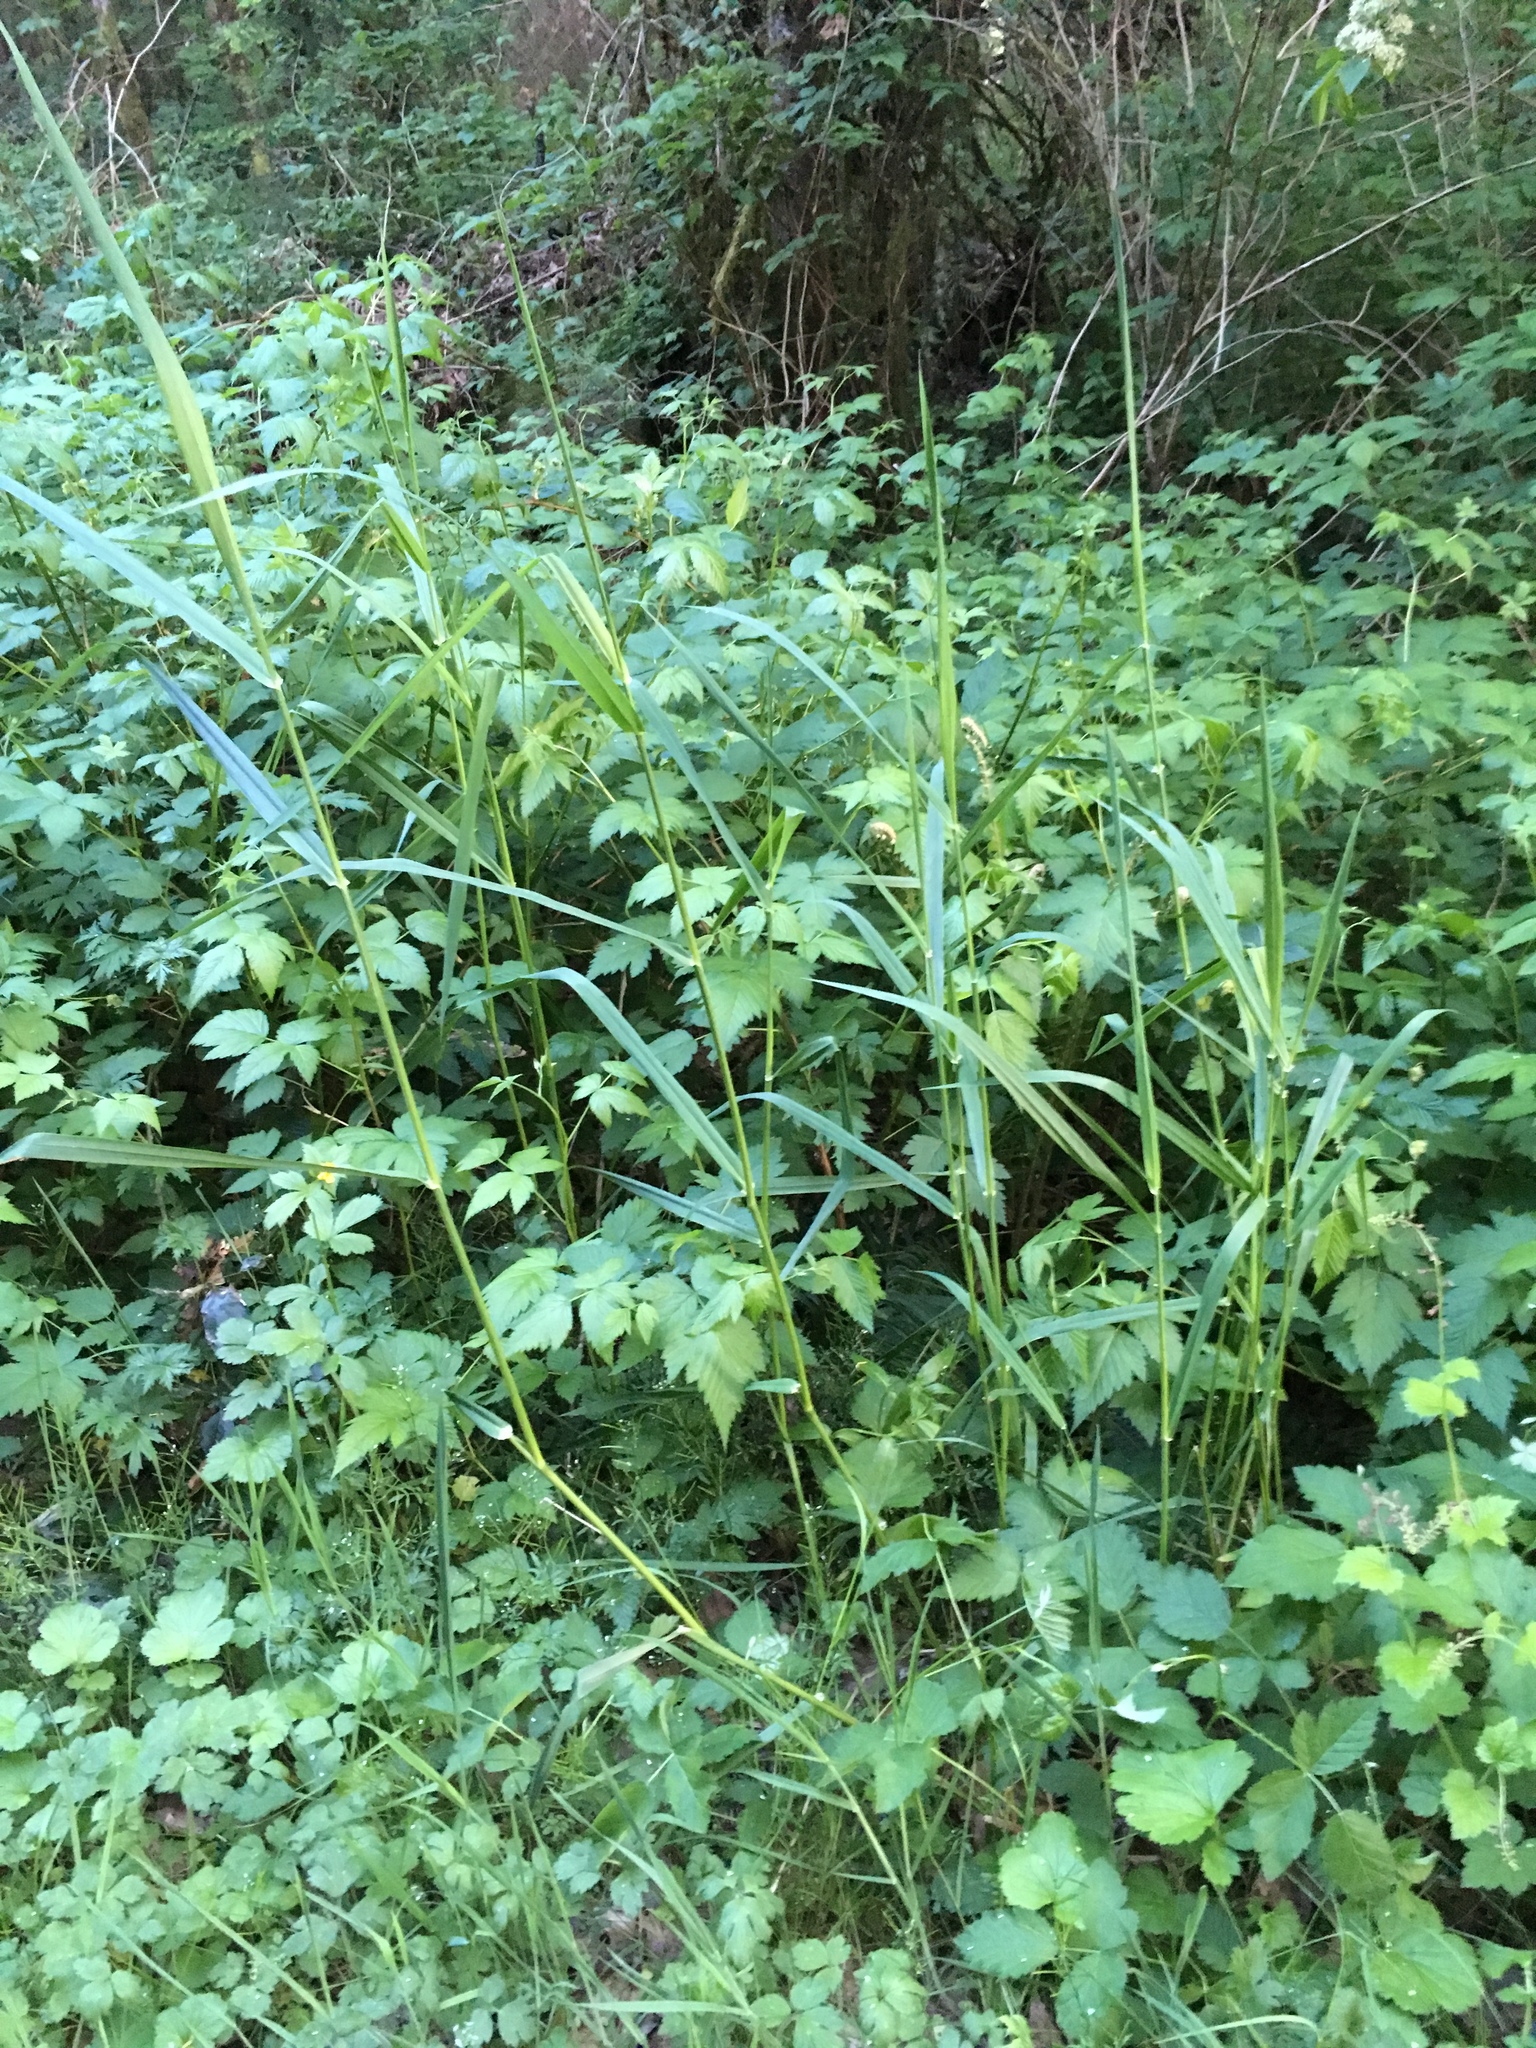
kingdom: Plantae
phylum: Tracheophyta
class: Liliopsida
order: Poales
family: Poaceae
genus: Phalaris
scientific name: Phalaris arundinacea
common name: Reed canary-grass
